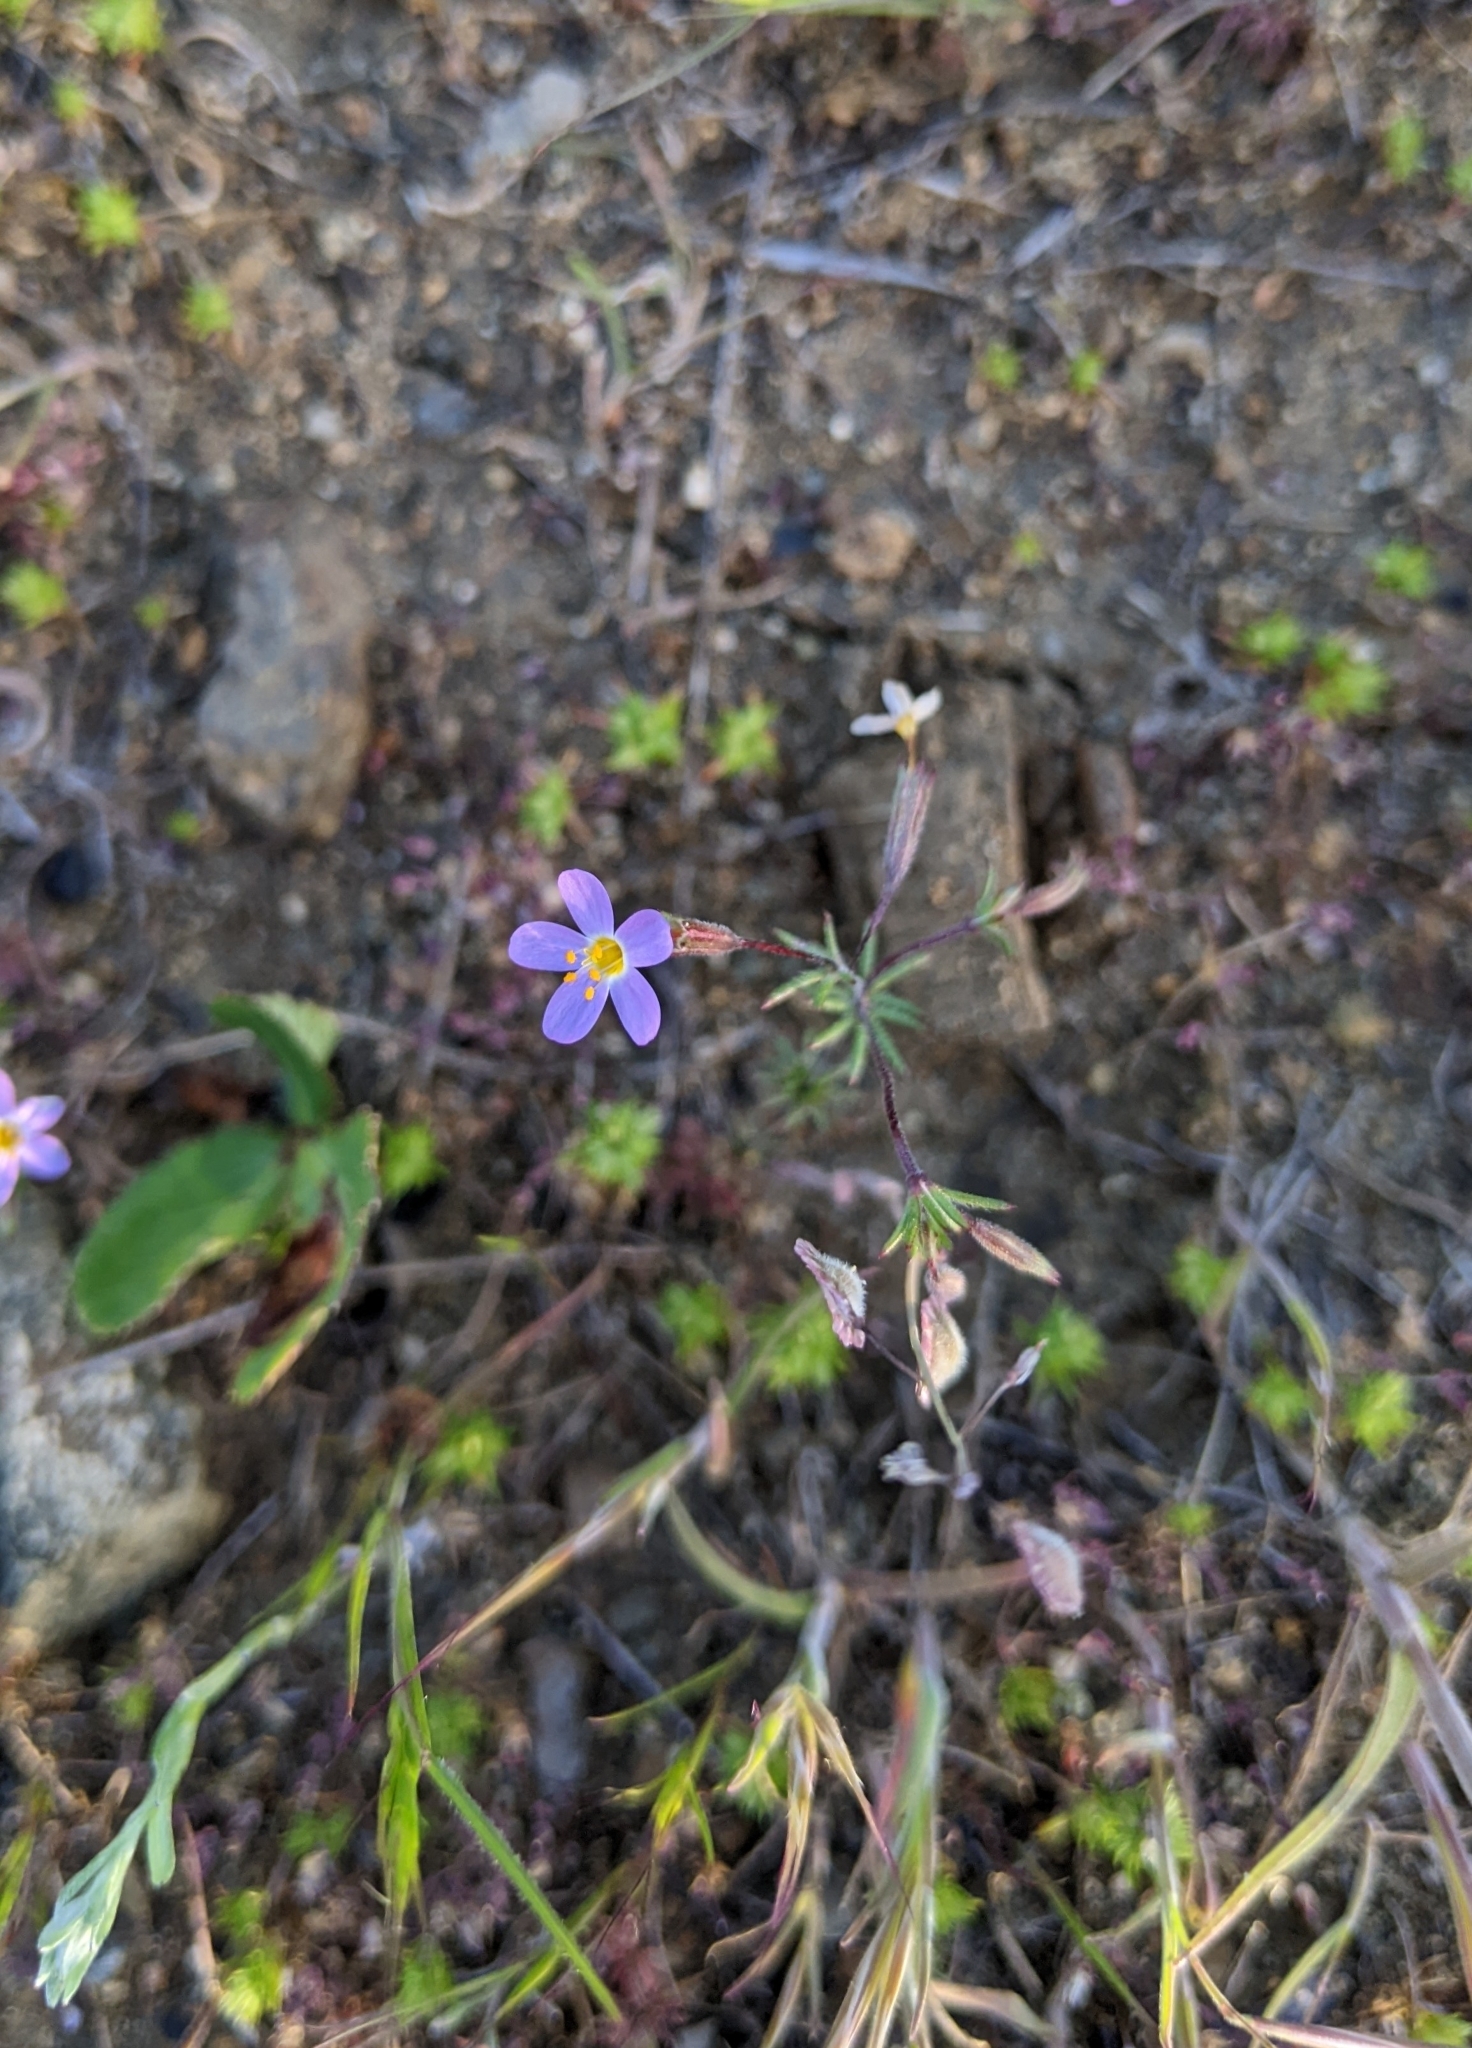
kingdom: Plantae
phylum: Tracheophyta
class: Magnoliopsida
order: Ericales
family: Polemoniaceae
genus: Leptosiphon
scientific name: Leptosiphon bolanderi
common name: Bolander's linanthus
